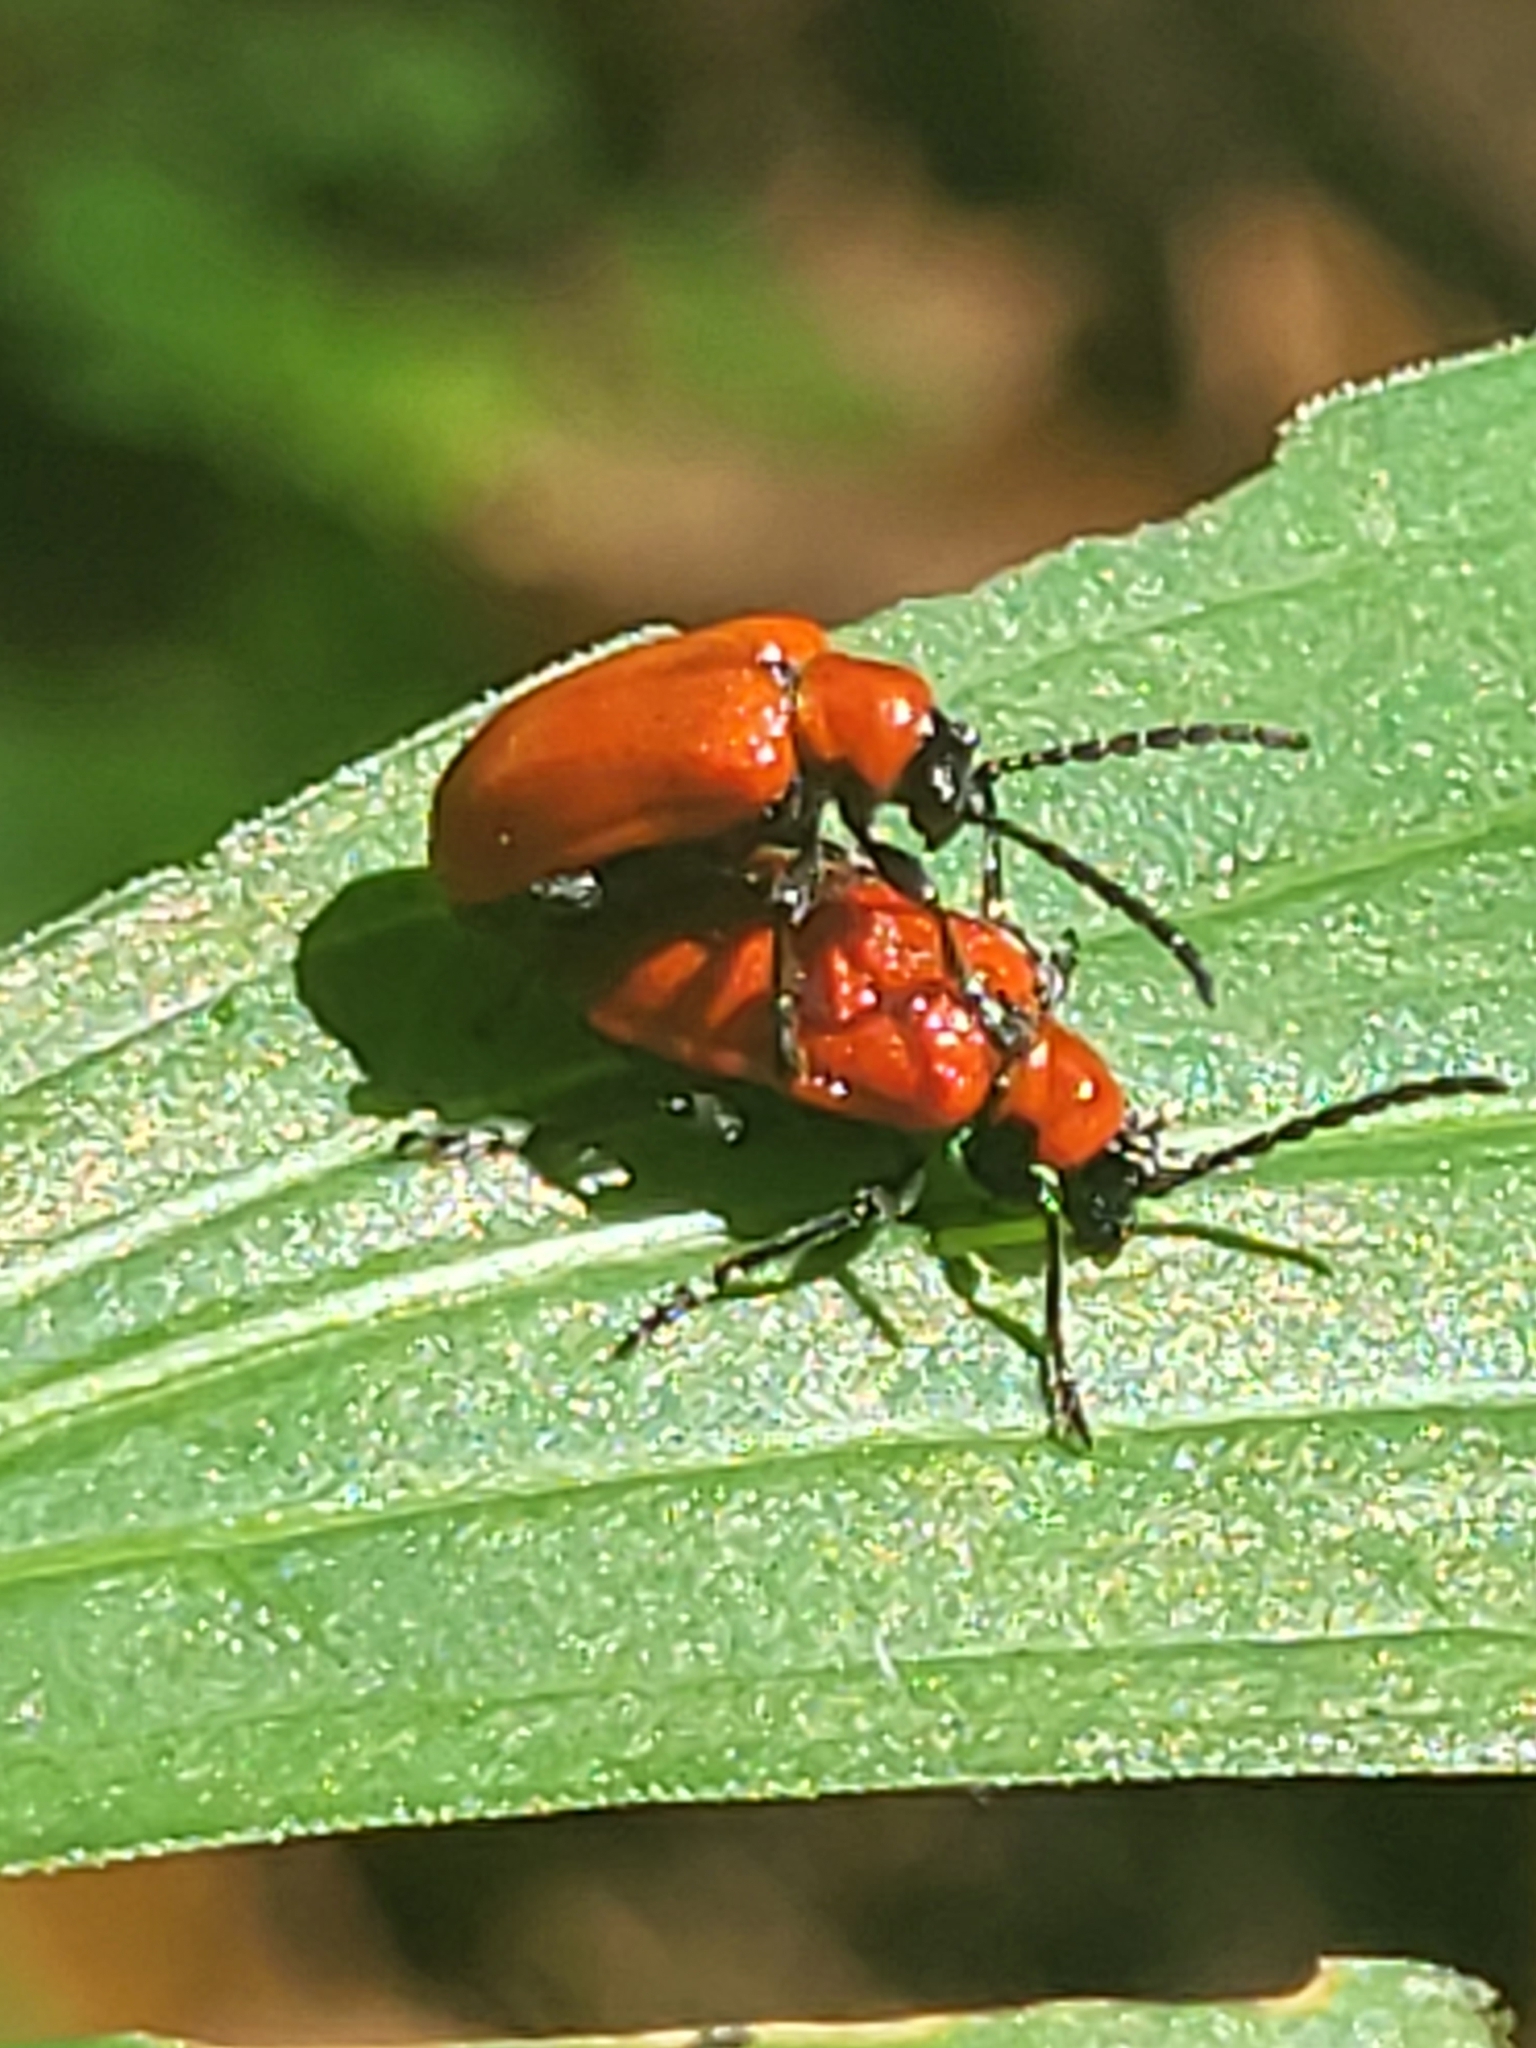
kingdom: Animalia
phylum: Arthropoda
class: Insecta
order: Coleoptera
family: Chrysomelidae
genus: Lilioceris
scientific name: Lilioceris lilii
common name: Lily beetle
